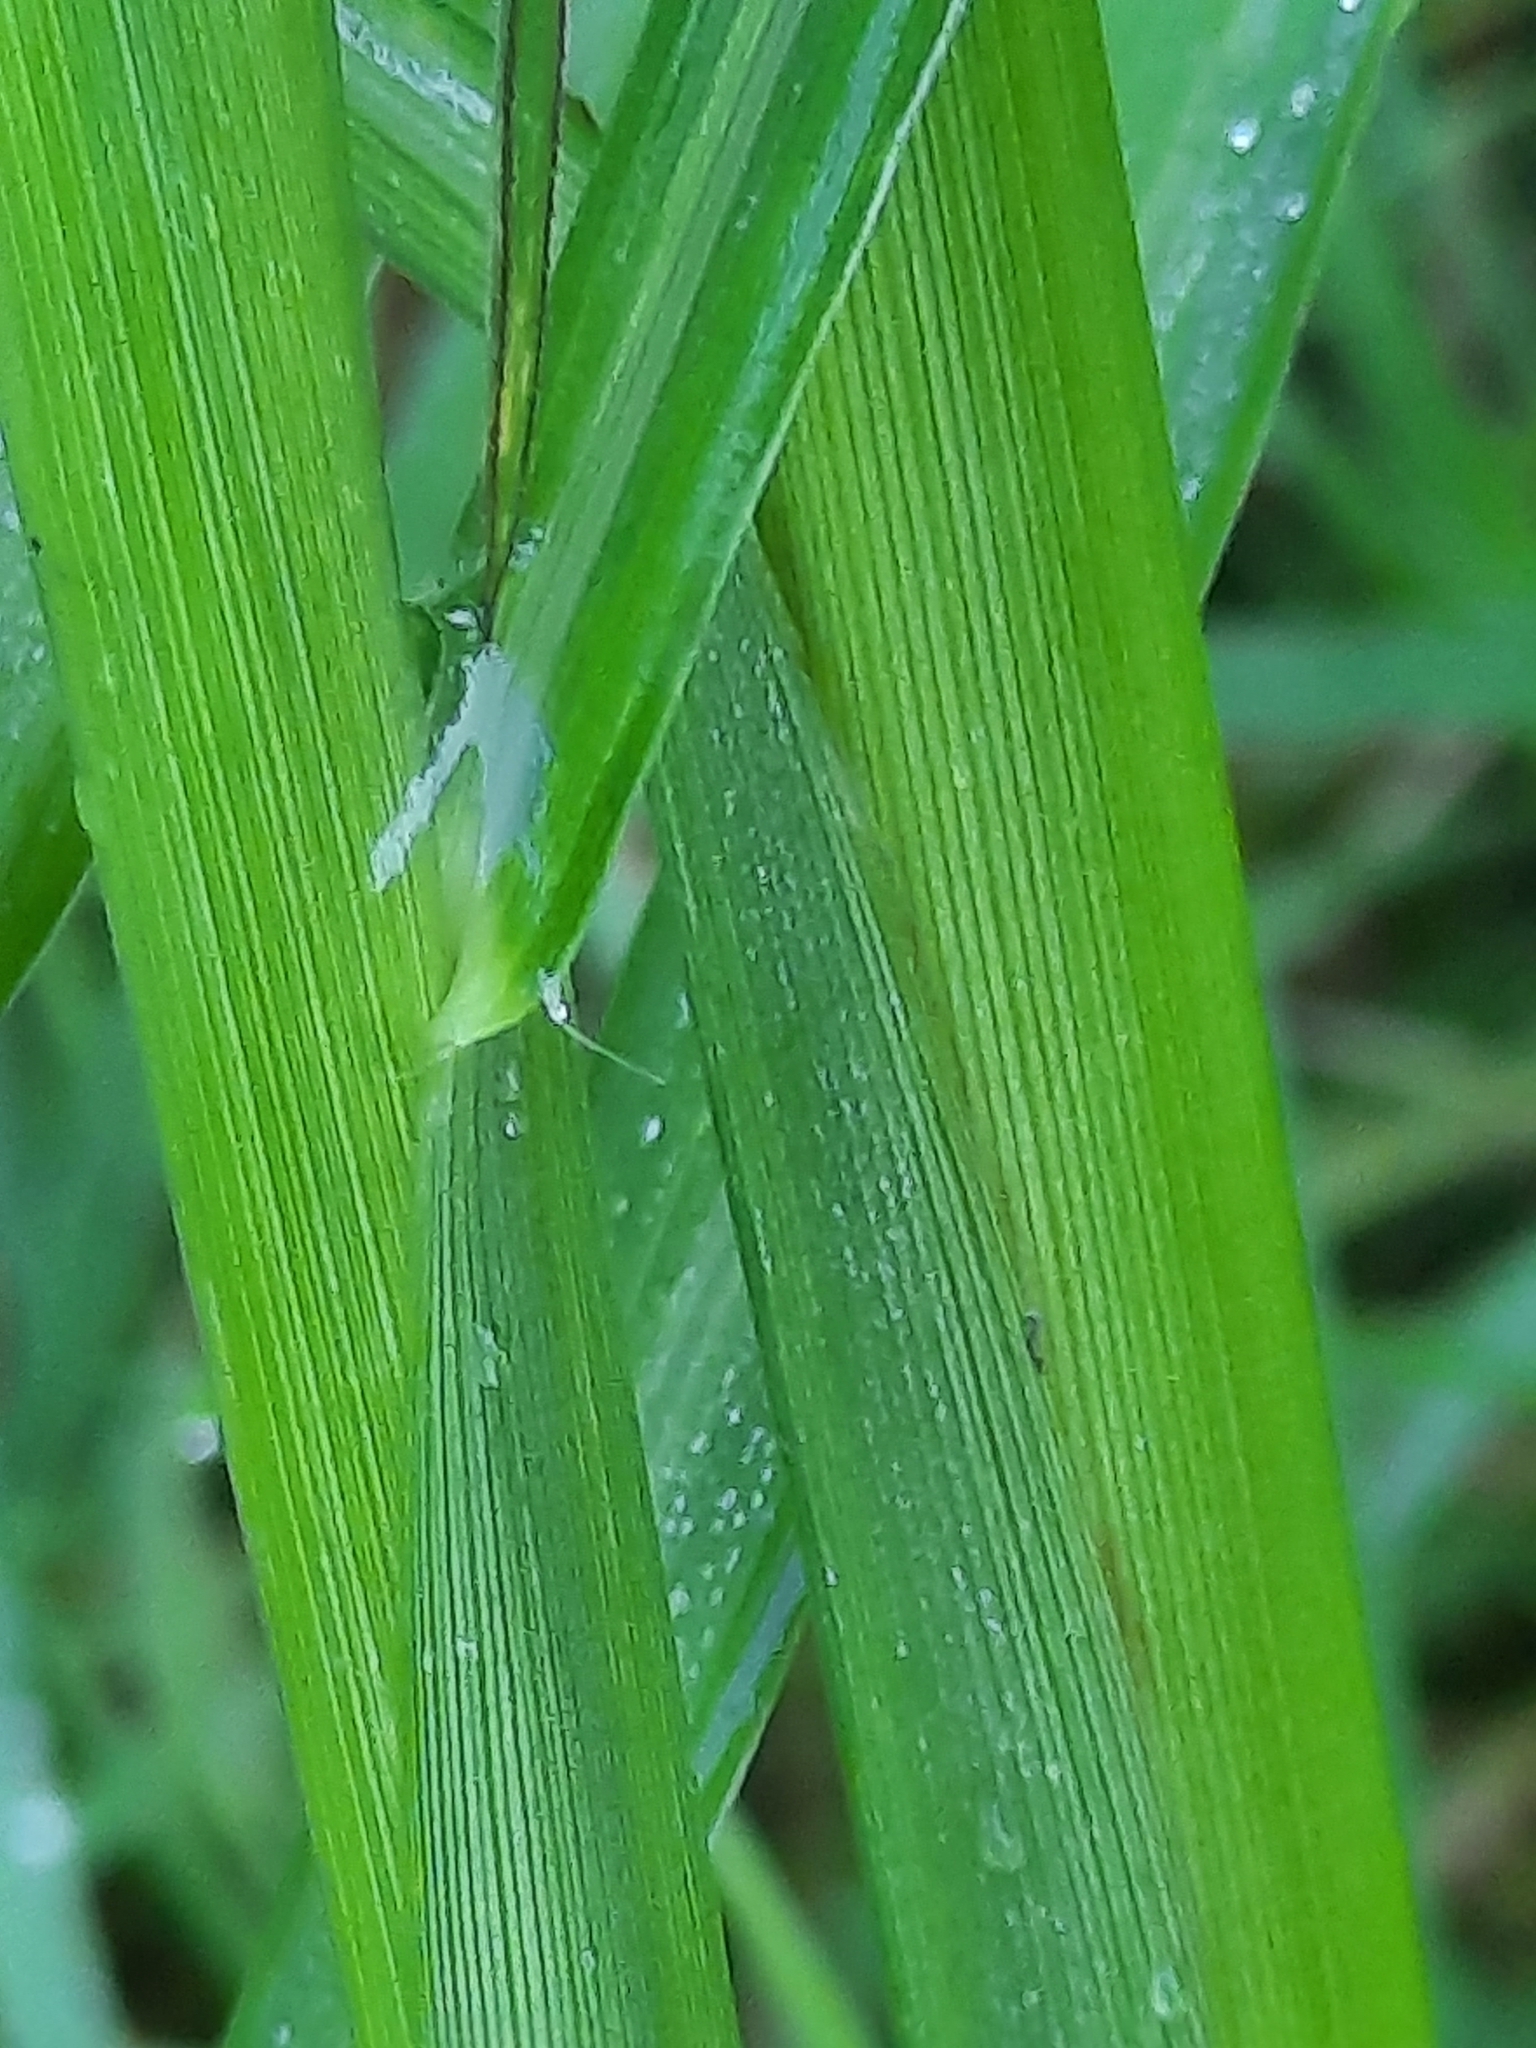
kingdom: Plantae
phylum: Tracheophyta
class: Liliopsida
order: Poales
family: Poaceae
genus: Echinochloa
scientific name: Echinochloa crus-galli
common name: Cockspur
